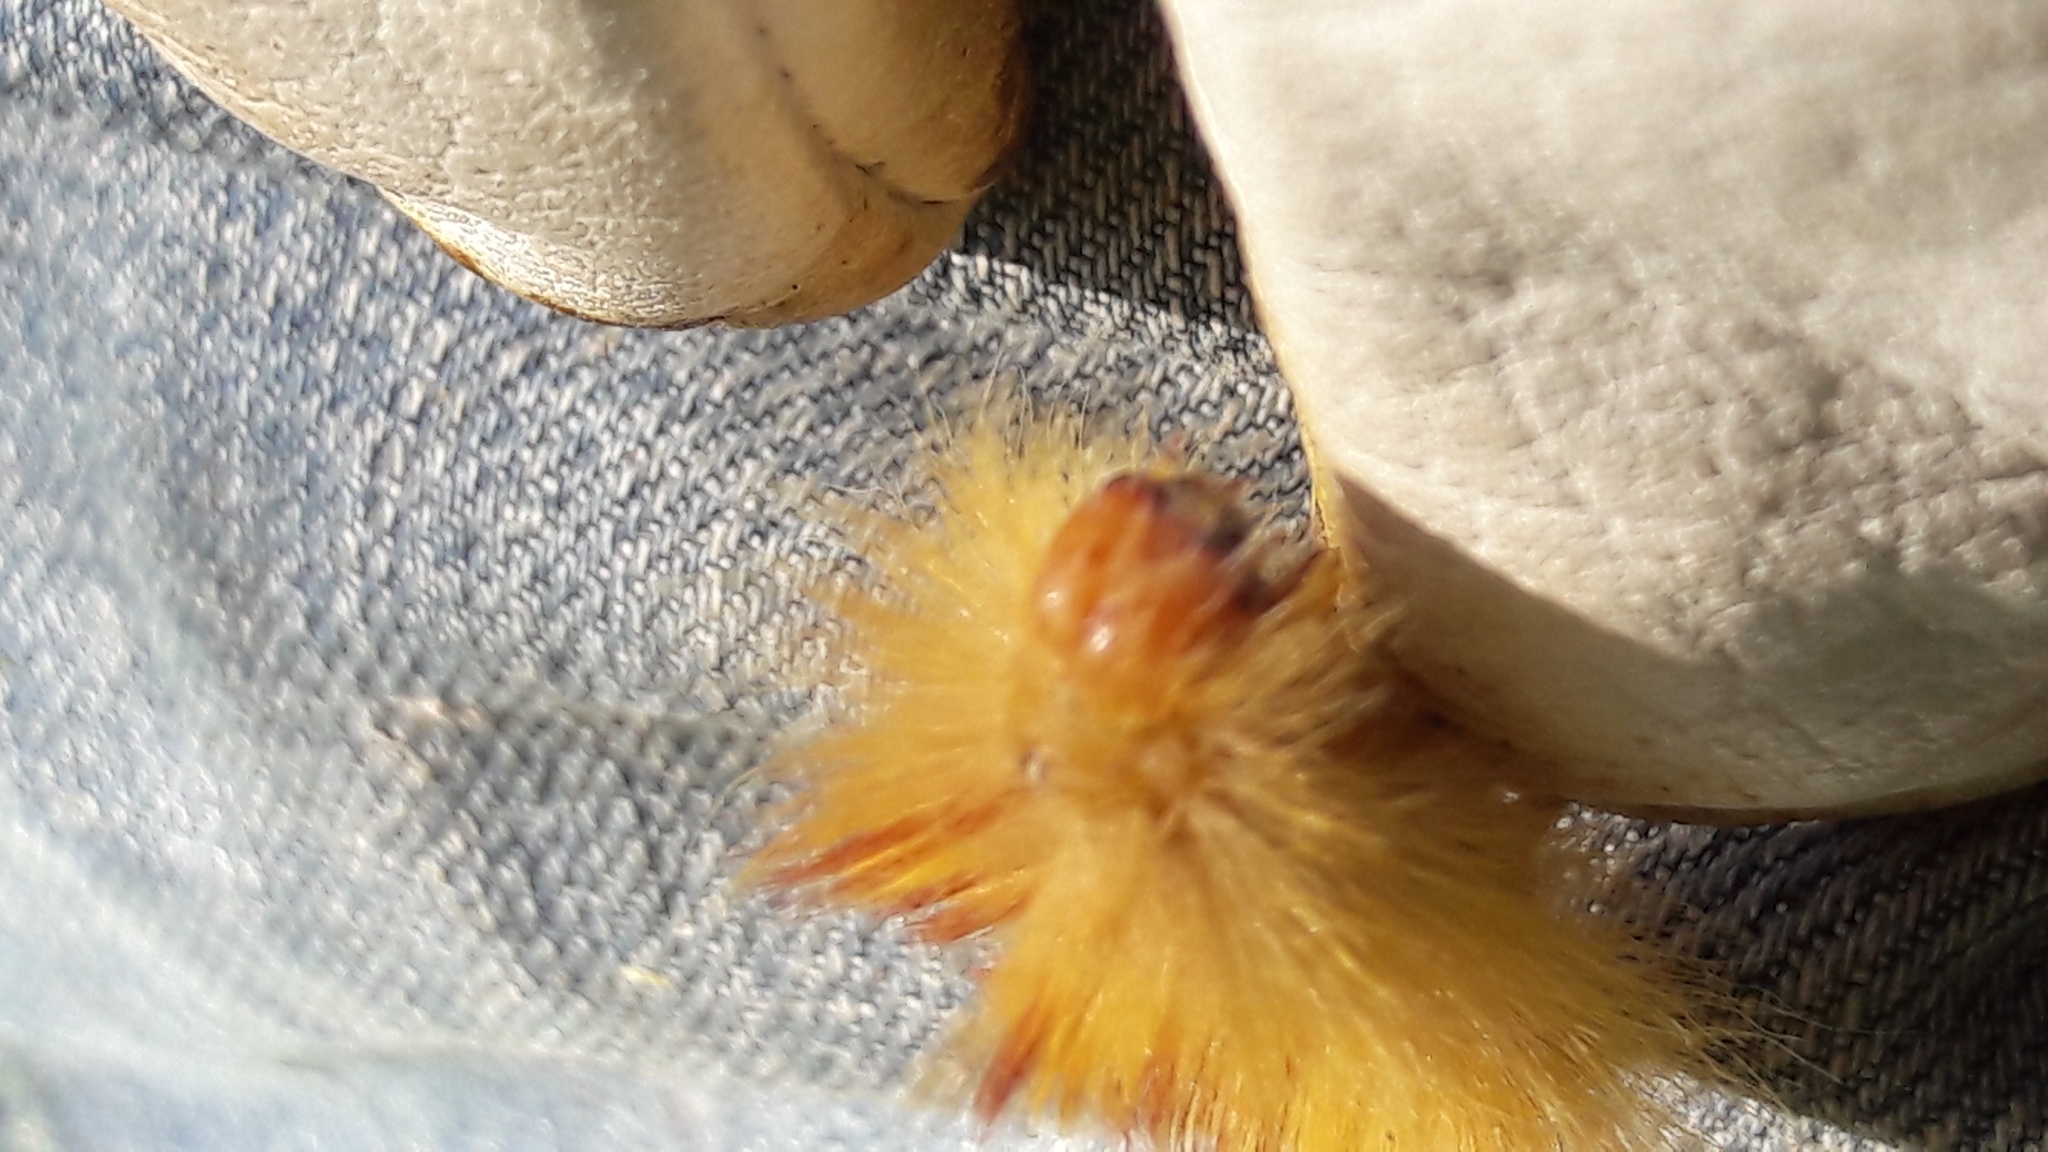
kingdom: Animalia
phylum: Arthropoda
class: Insecta
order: Lepidoptera
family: Noctuidae
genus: Acronicta
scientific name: Acronicta aceris
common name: Sycamore
